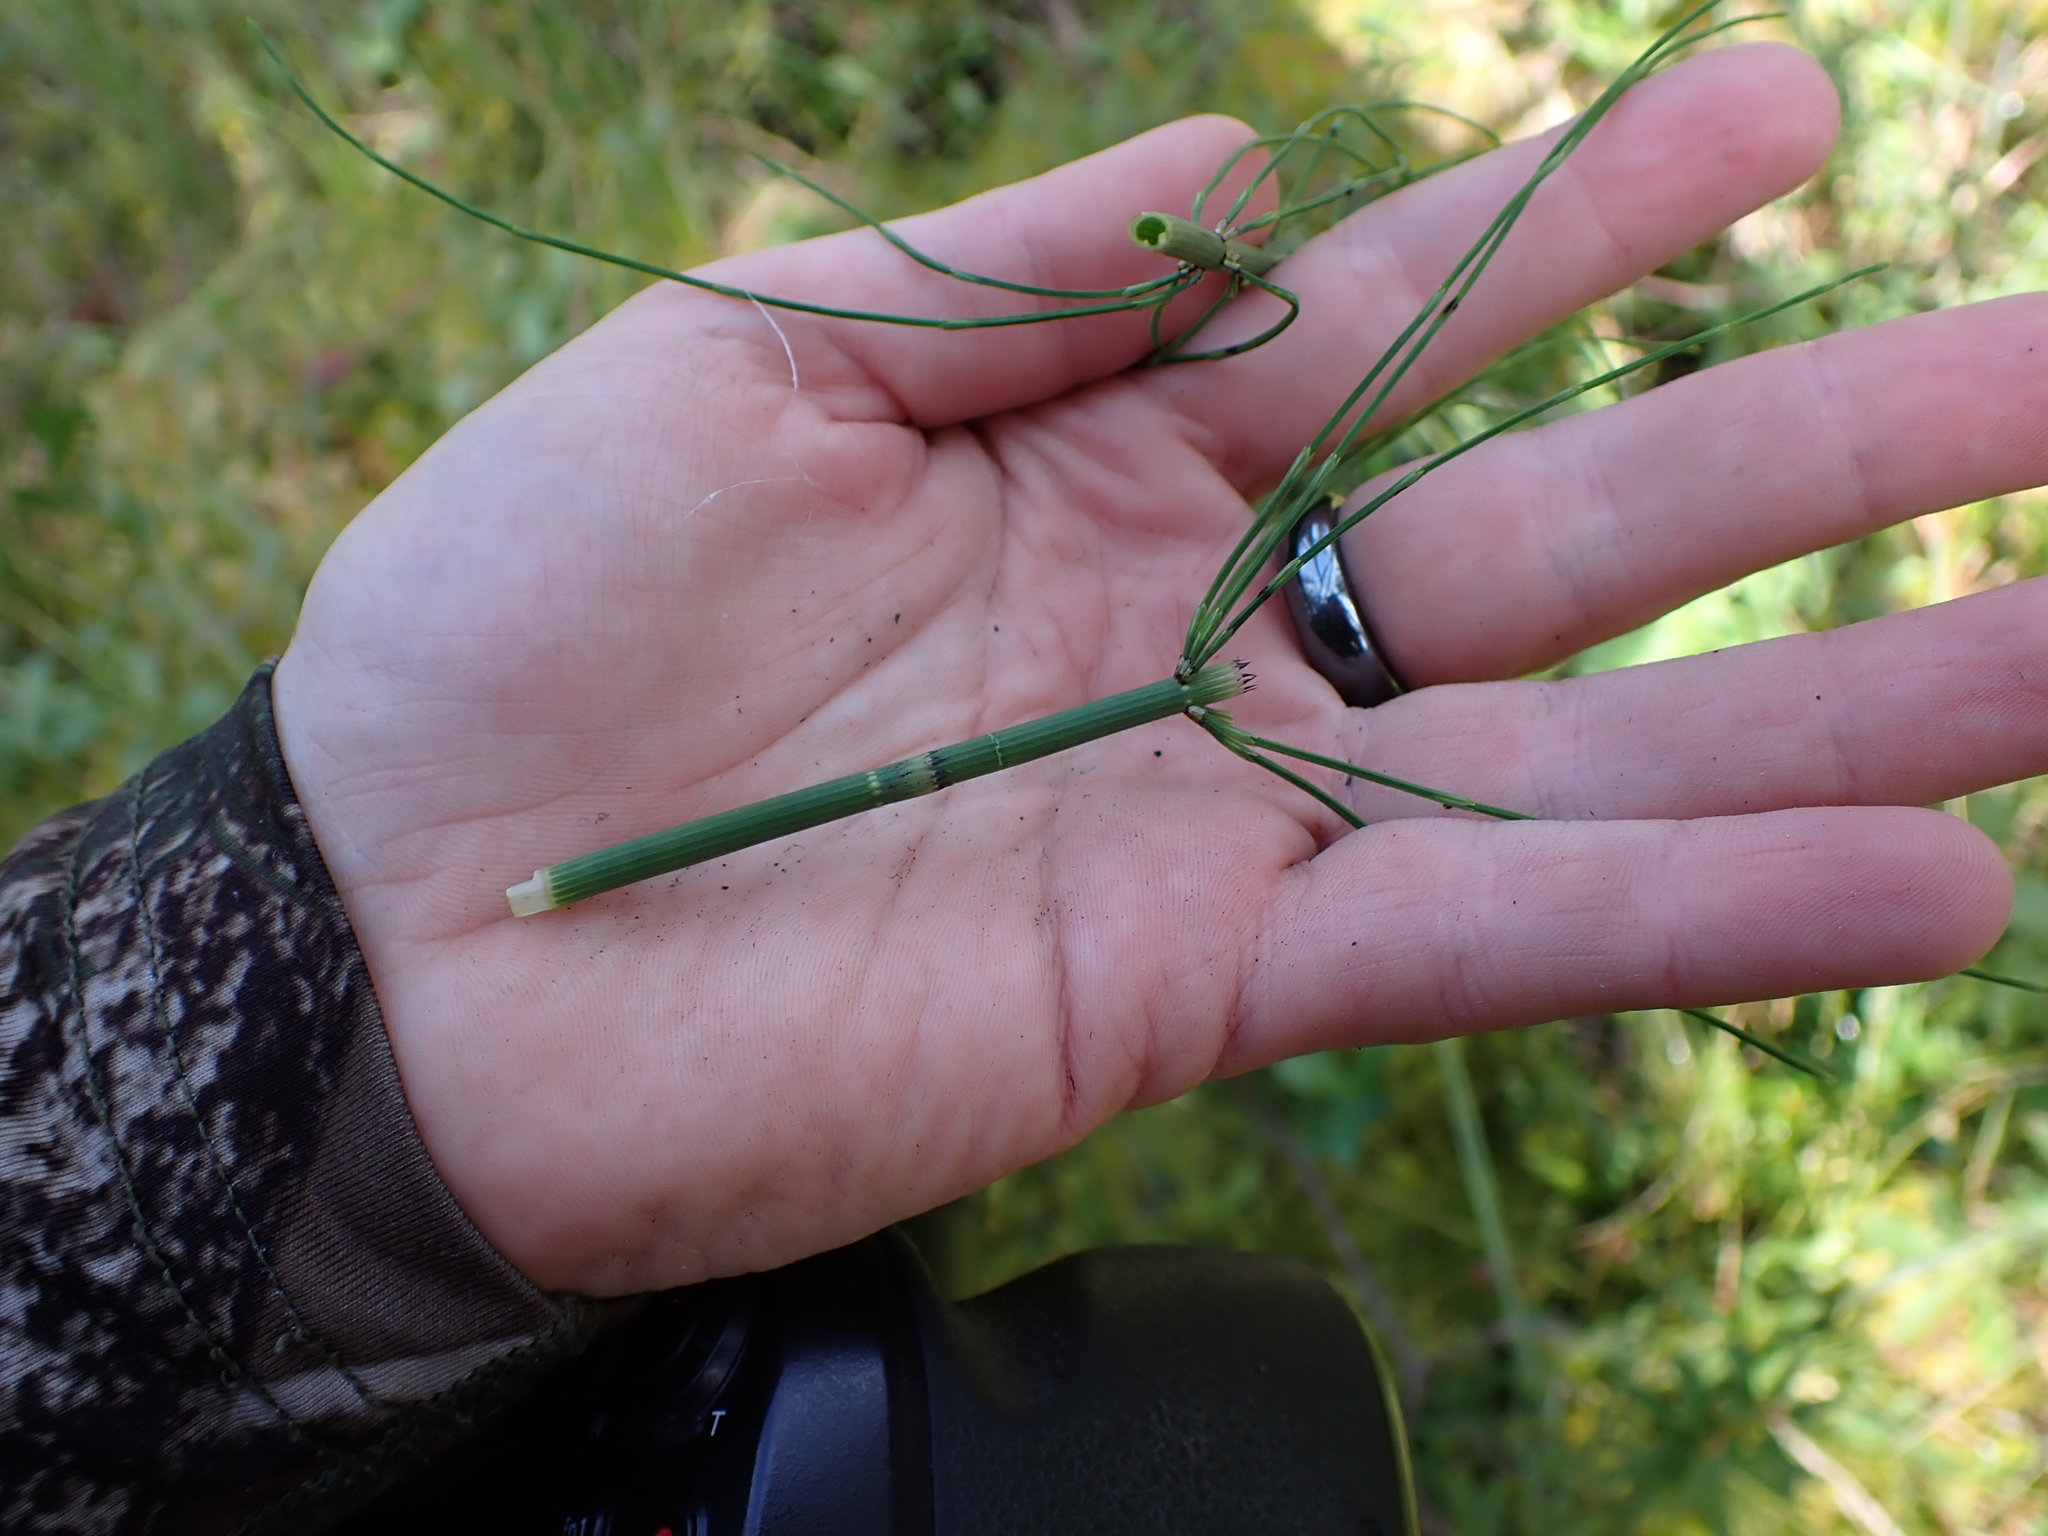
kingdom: Plantae
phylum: Tracheophyta
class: Polypodiopsida
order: Equisetales
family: Equisetaceae
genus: Equisetum
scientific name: Equisetum fluviatile
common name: Water horsetail
